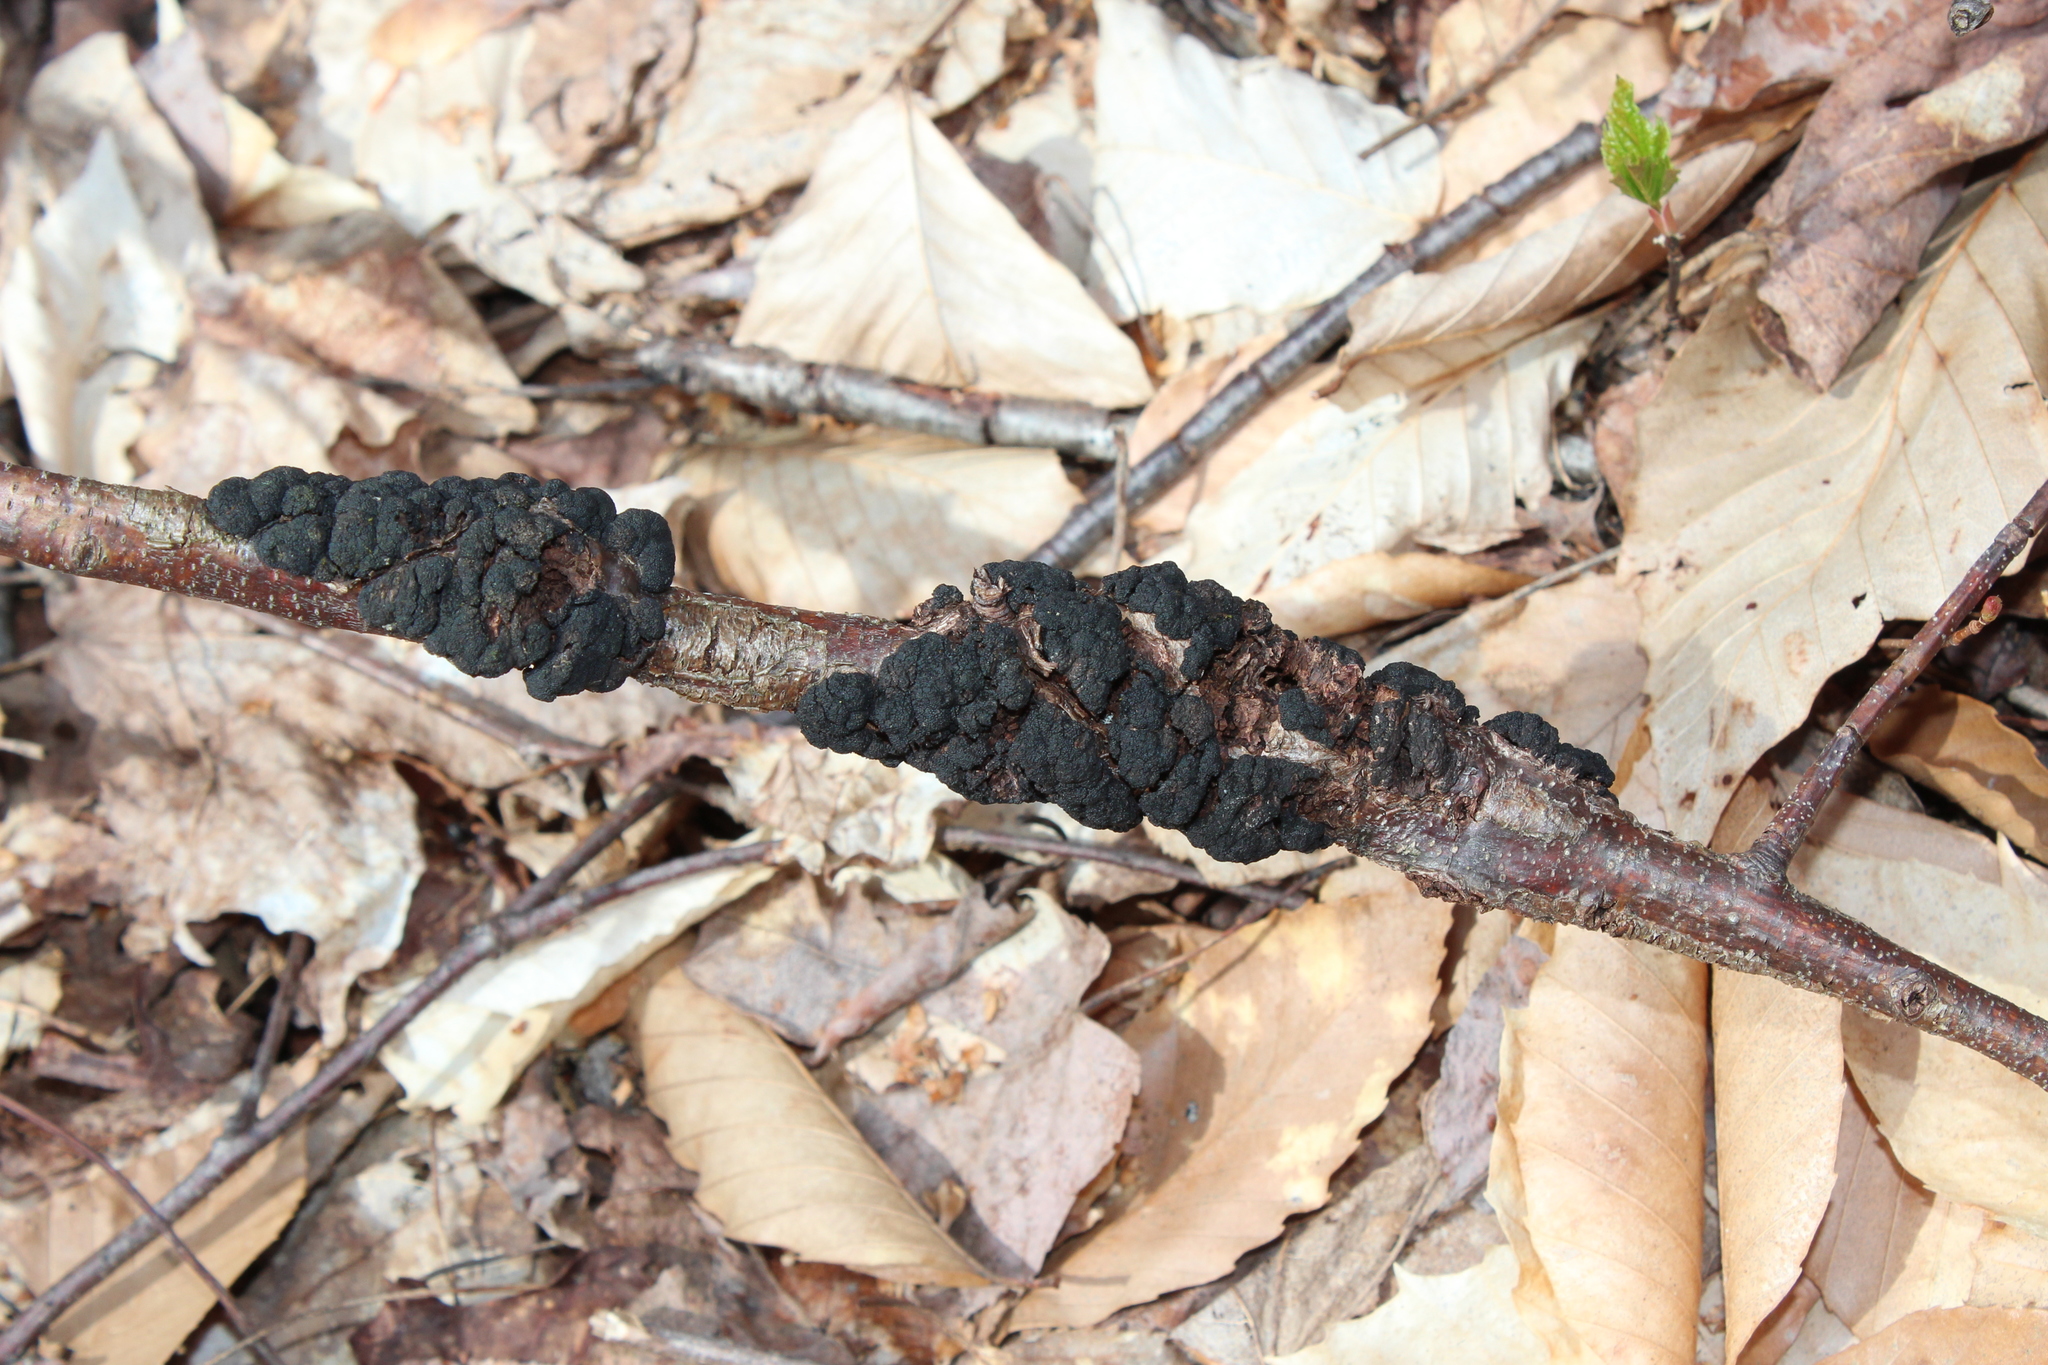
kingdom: Fungi
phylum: Ascomycota
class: Dothideomycetes
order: Venturiales
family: Venturiaceae
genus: Apiosporina
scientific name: Apiosporina morbosa
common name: Black knot
